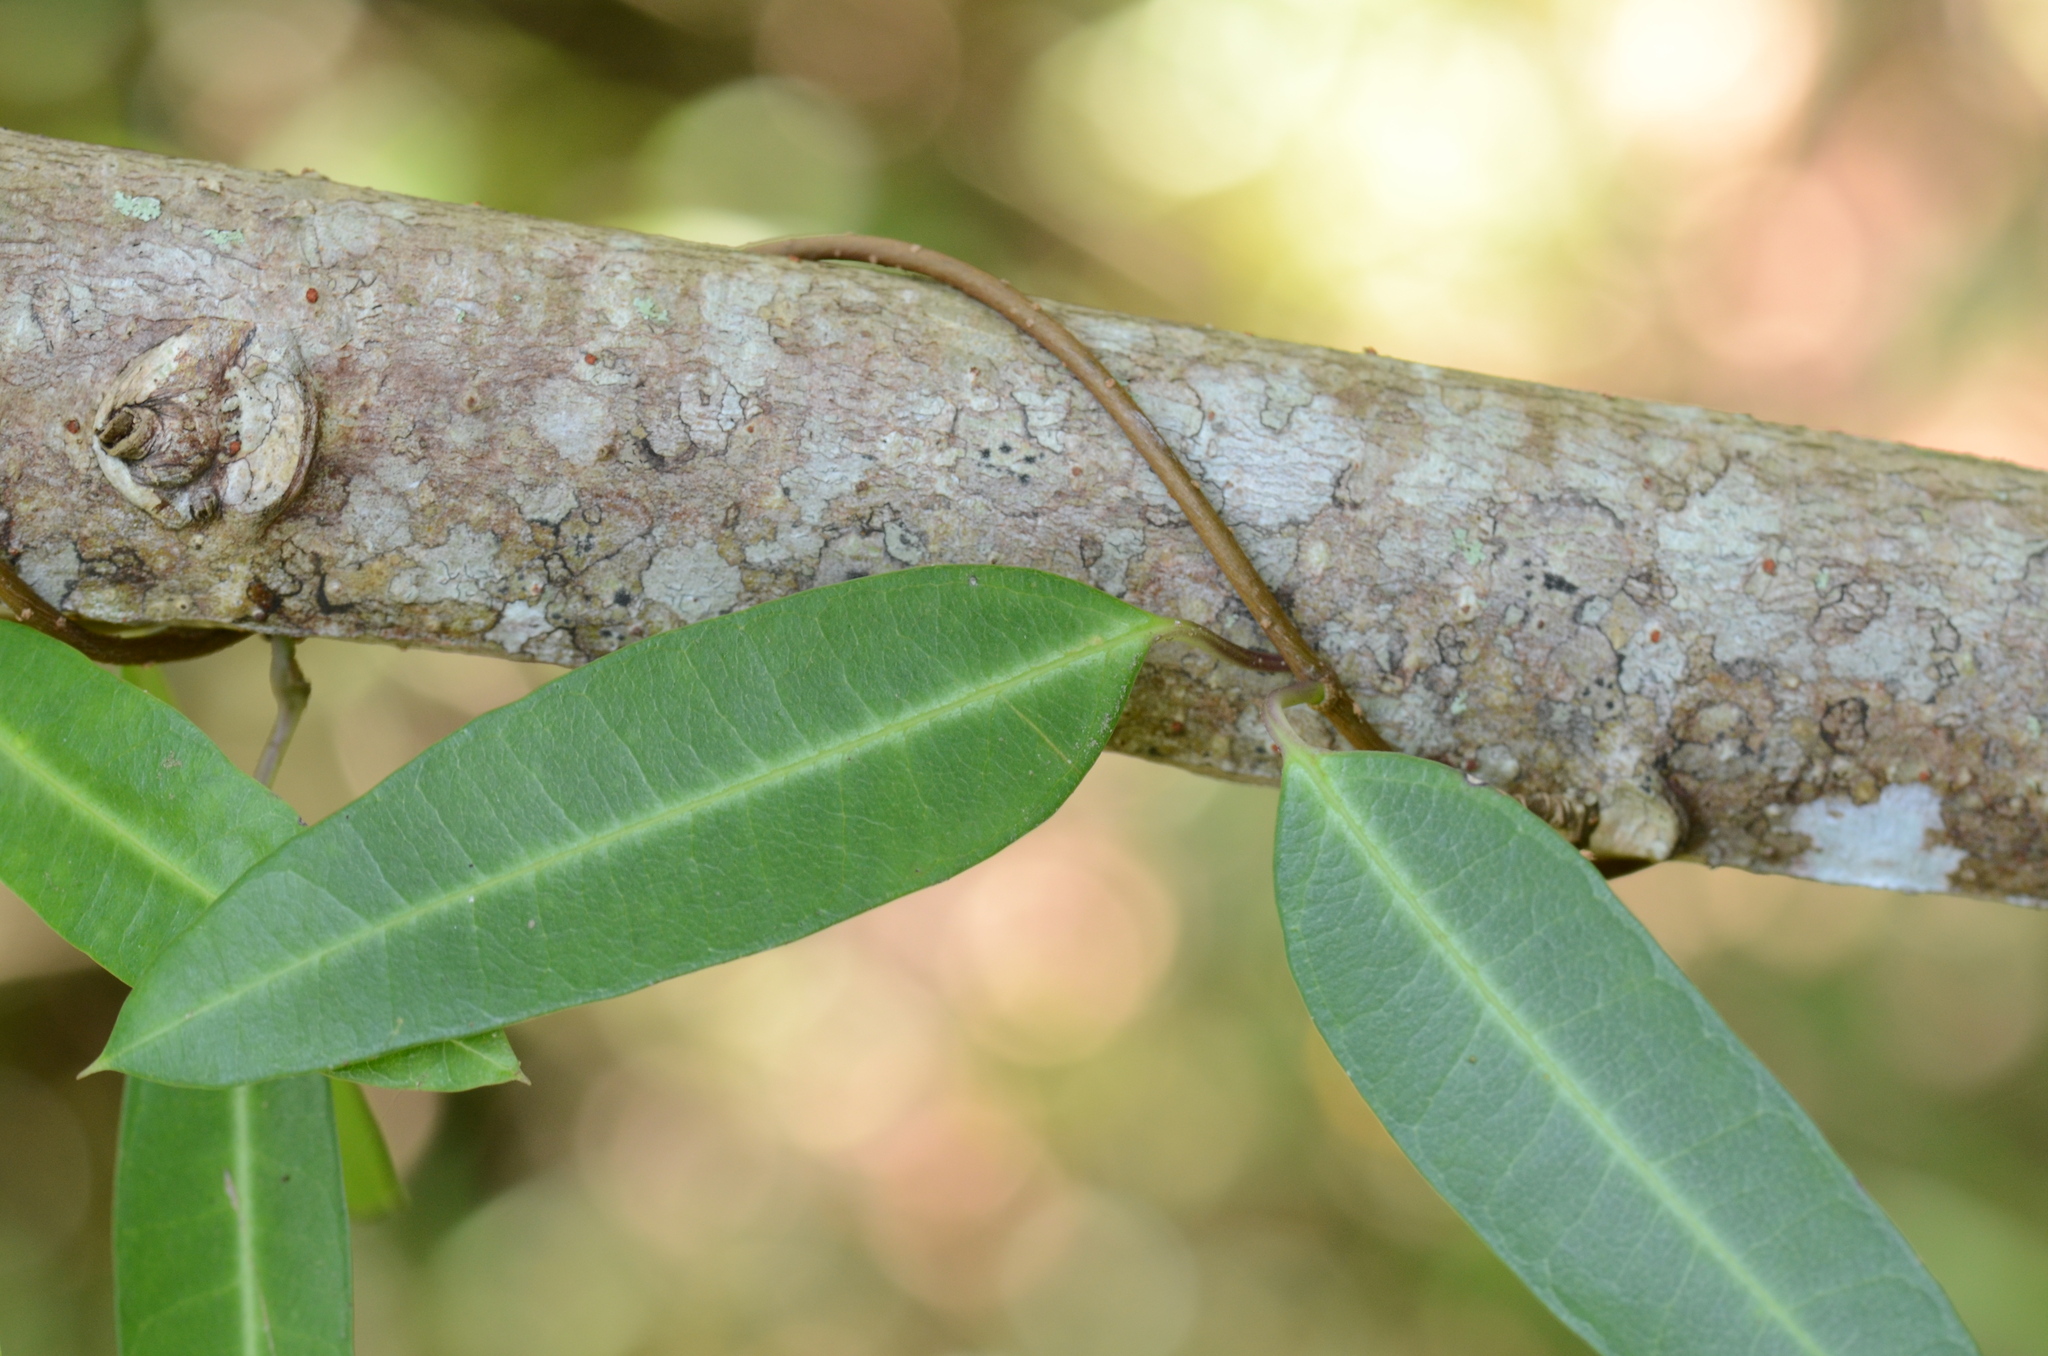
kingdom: Plantae
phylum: Tracheophyta
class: Magnoliopsida
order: Gentianales
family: Apocynaceae
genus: Gymnanthera
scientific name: Gymnanthera oblonga
